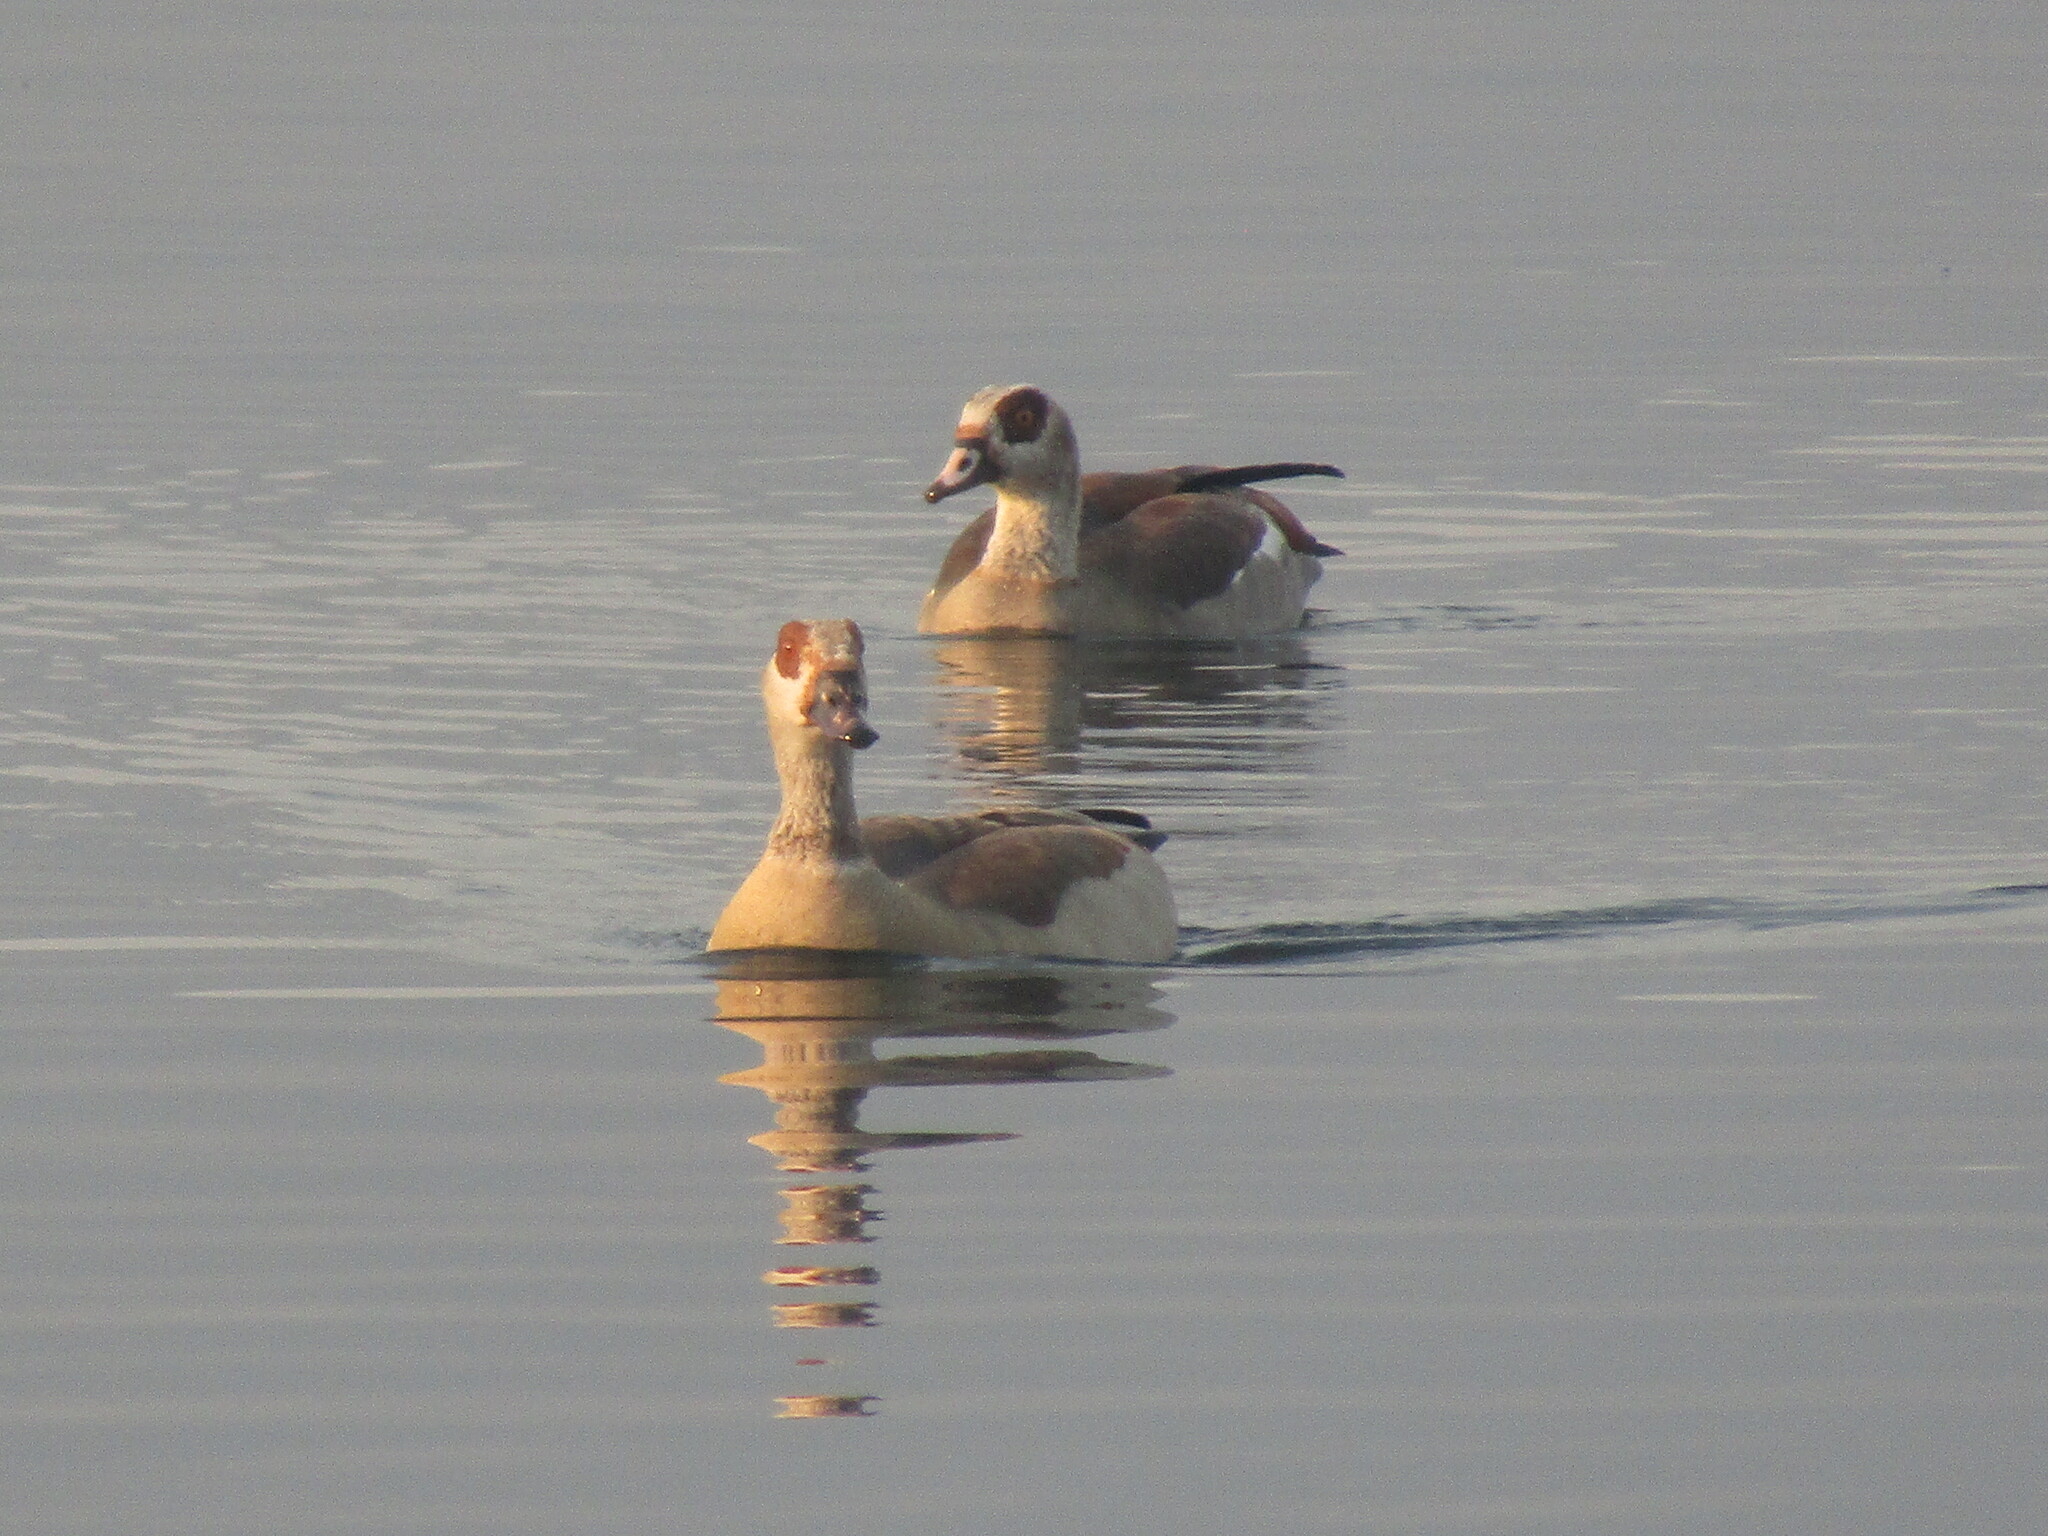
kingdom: Animalia
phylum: Chordata
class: Aves
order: Anseriformes
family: Anatidae
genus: Alopochen
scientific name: Alopochen aegyptiaca
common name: Egyptian goose
